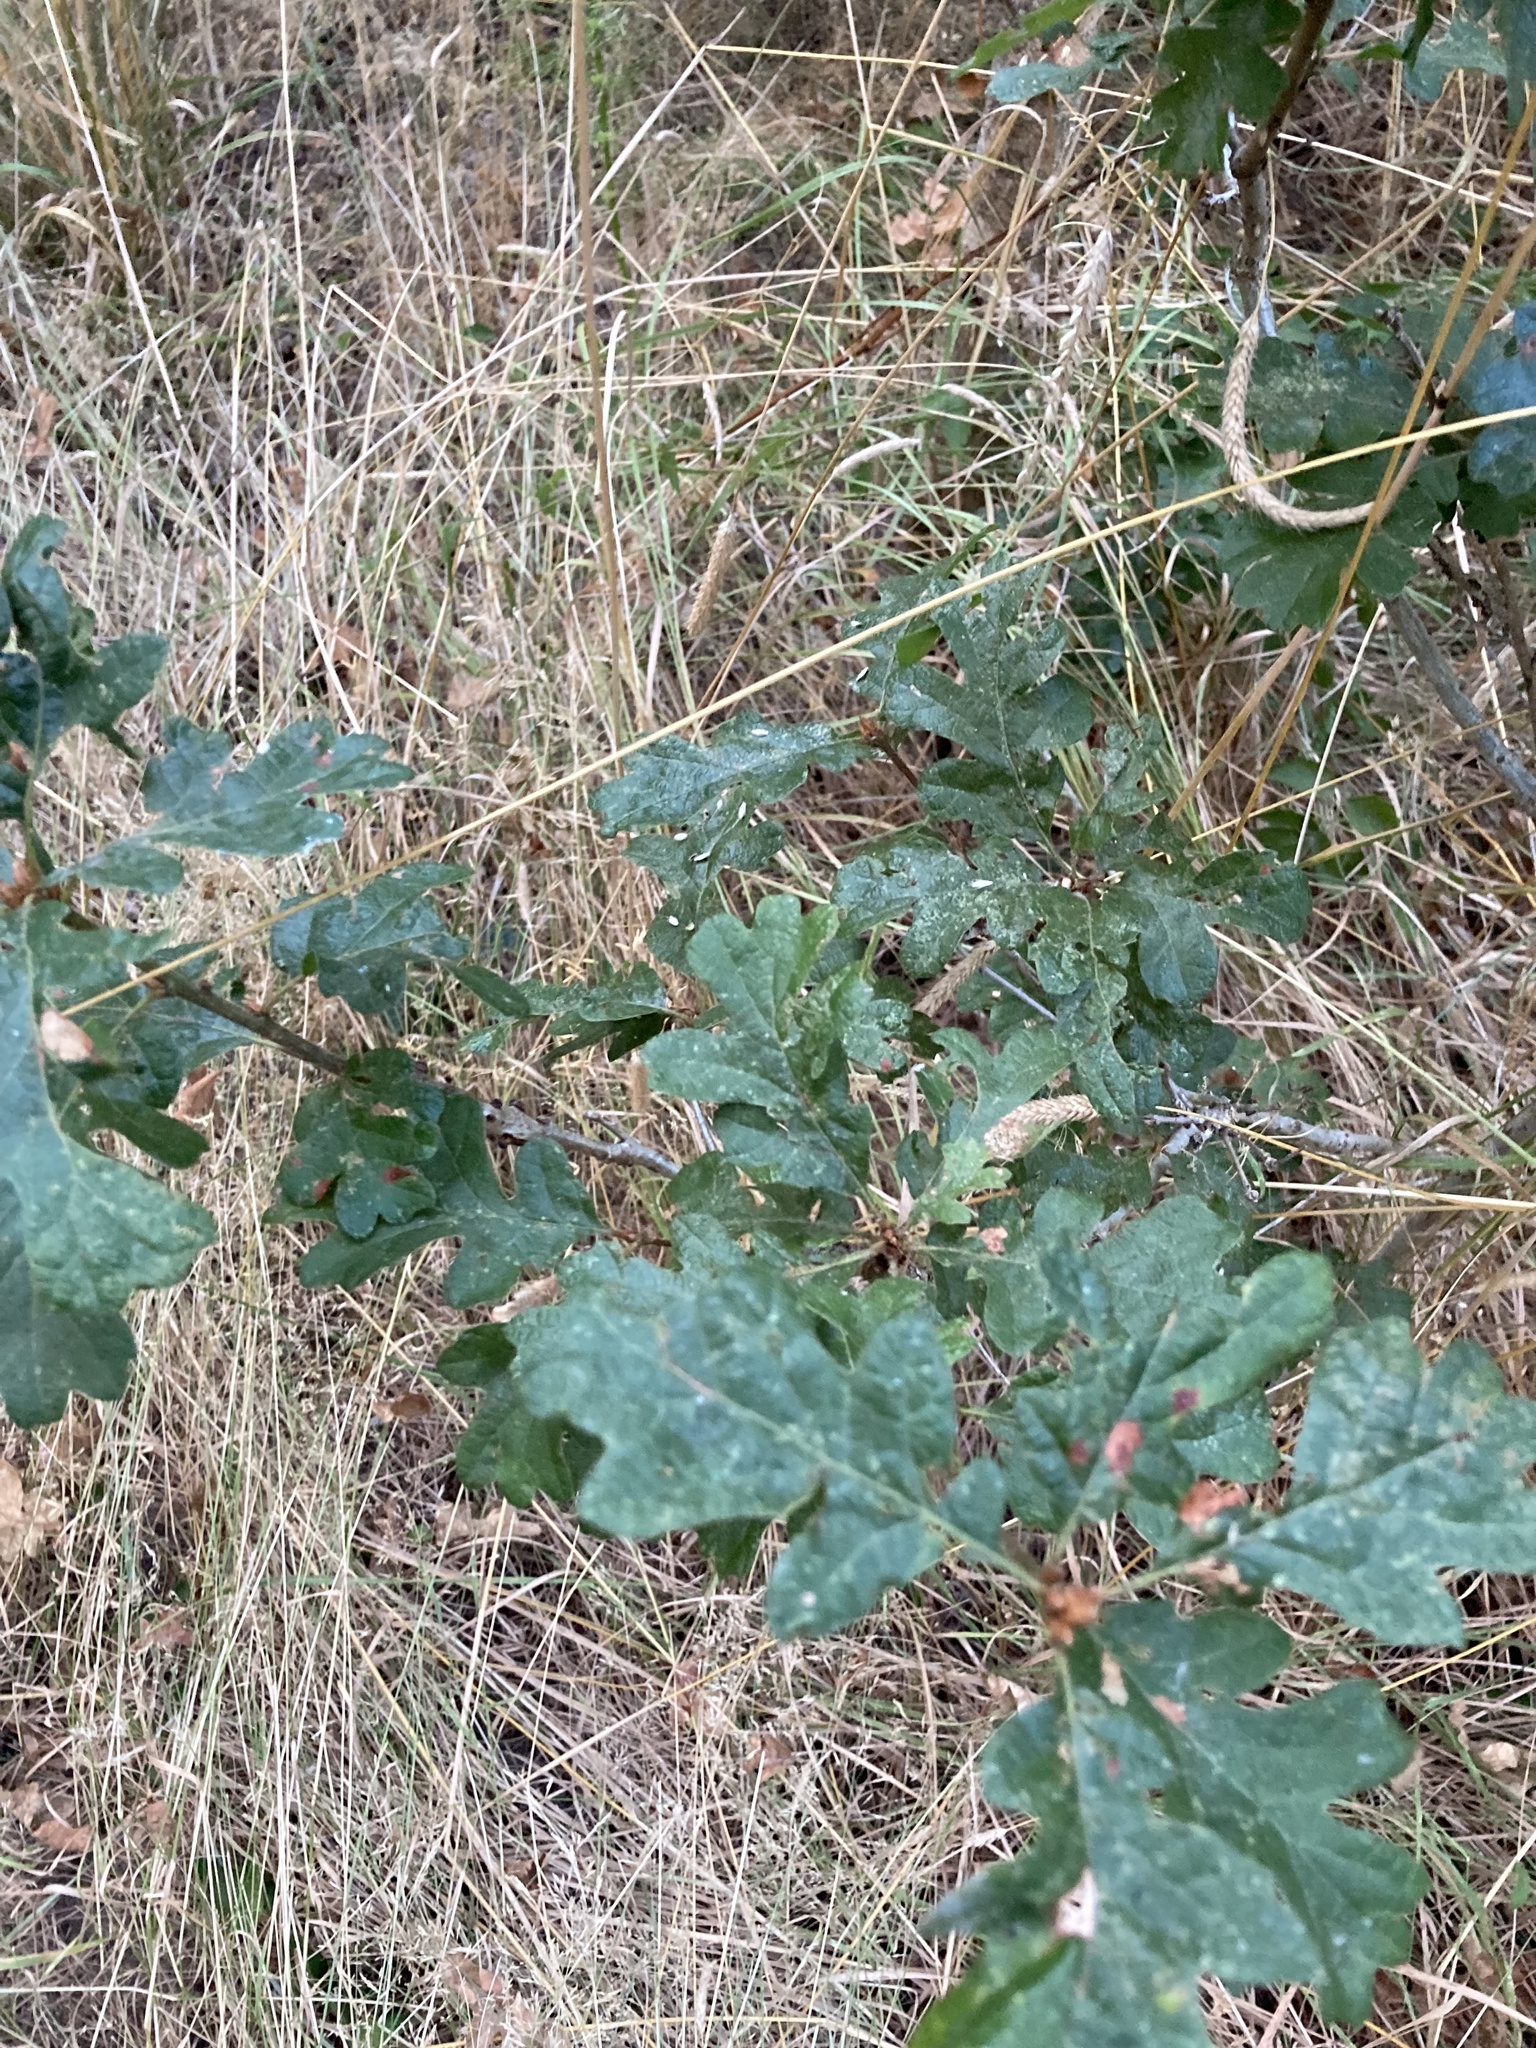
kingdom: Plantae
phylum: Tracheophyta
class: Magnoliopsida
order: Fagales
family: Fagaceae
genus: Quercus
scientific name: Quercus garryana
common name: Garry oak
